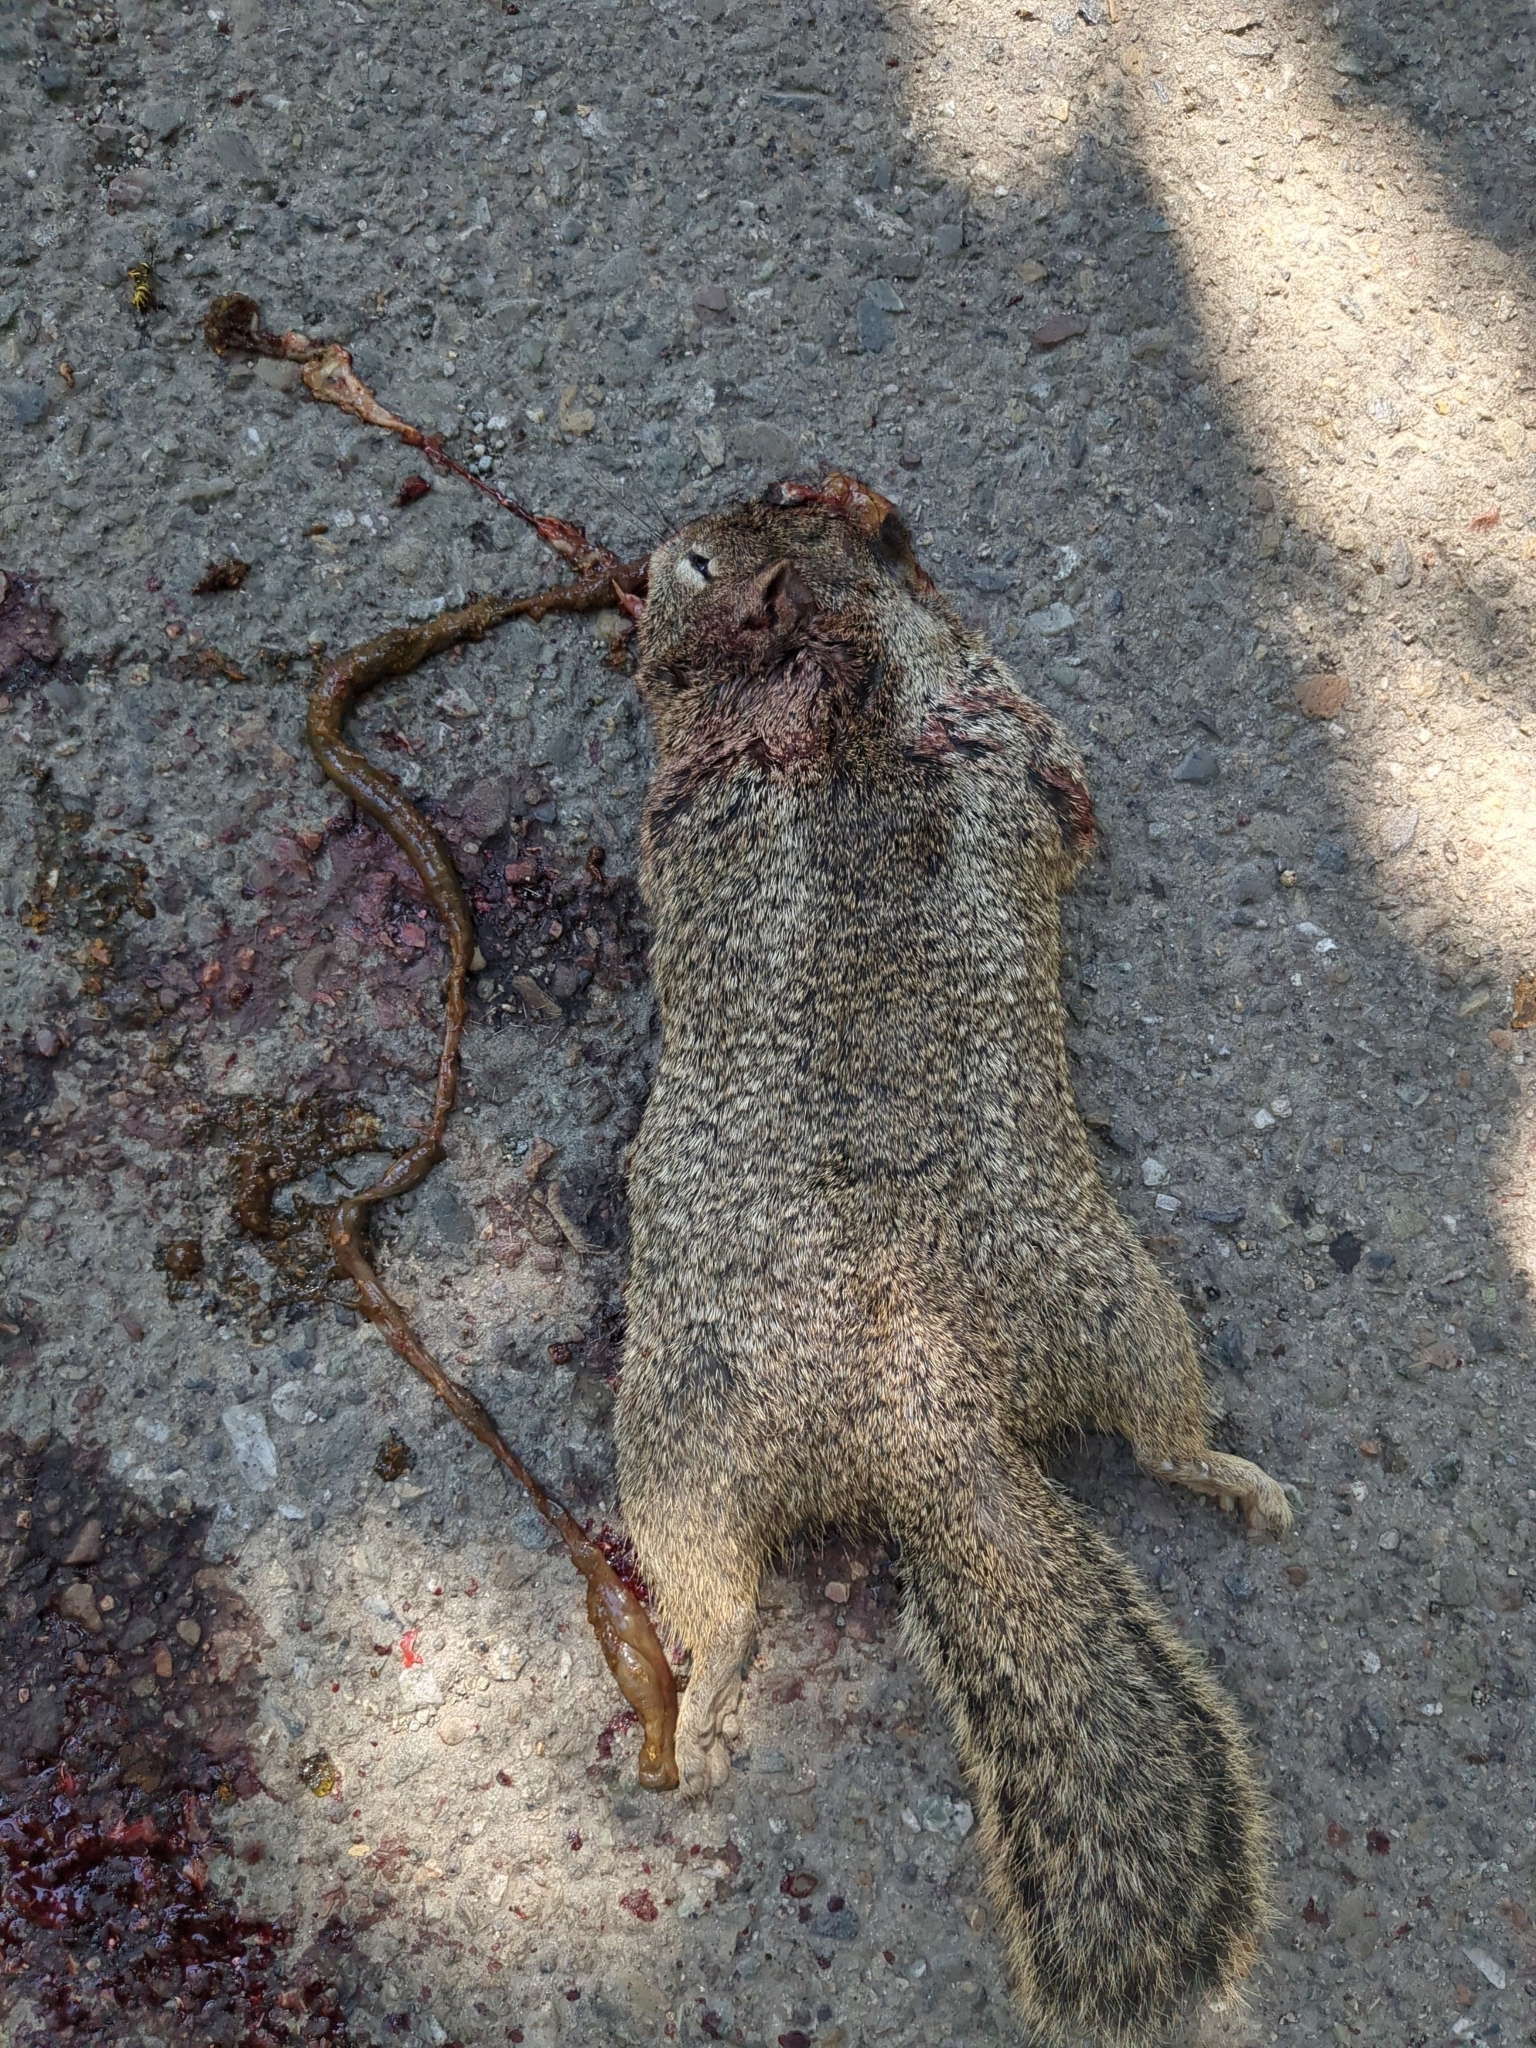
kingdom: Animalia
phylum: Chordata
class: Mammalia
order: Rodentia
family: Sciuridae
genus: Otospermophilus
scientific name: Otospermophilus beecheyi
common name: California ground squirrel
